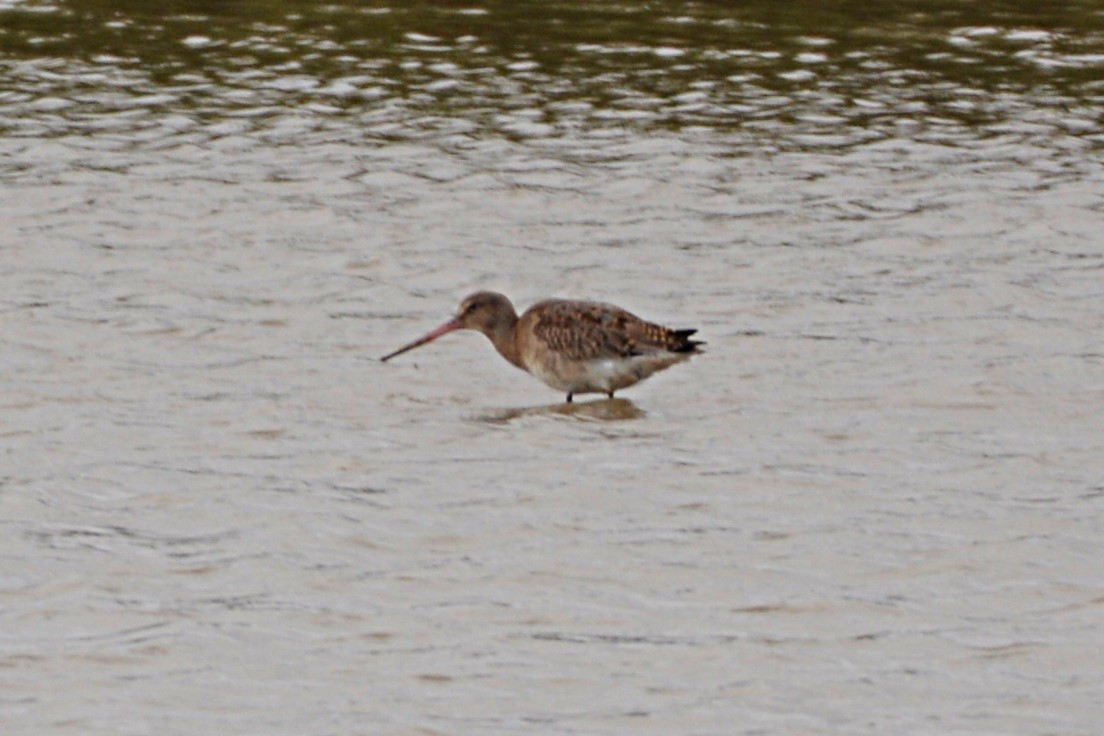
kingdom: Animalia
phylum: Chordata
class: Aves
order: Charadriiformes
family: Scolopacidae
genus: Limosa
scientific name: Limosa limosa
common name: Black-tailed godwit
